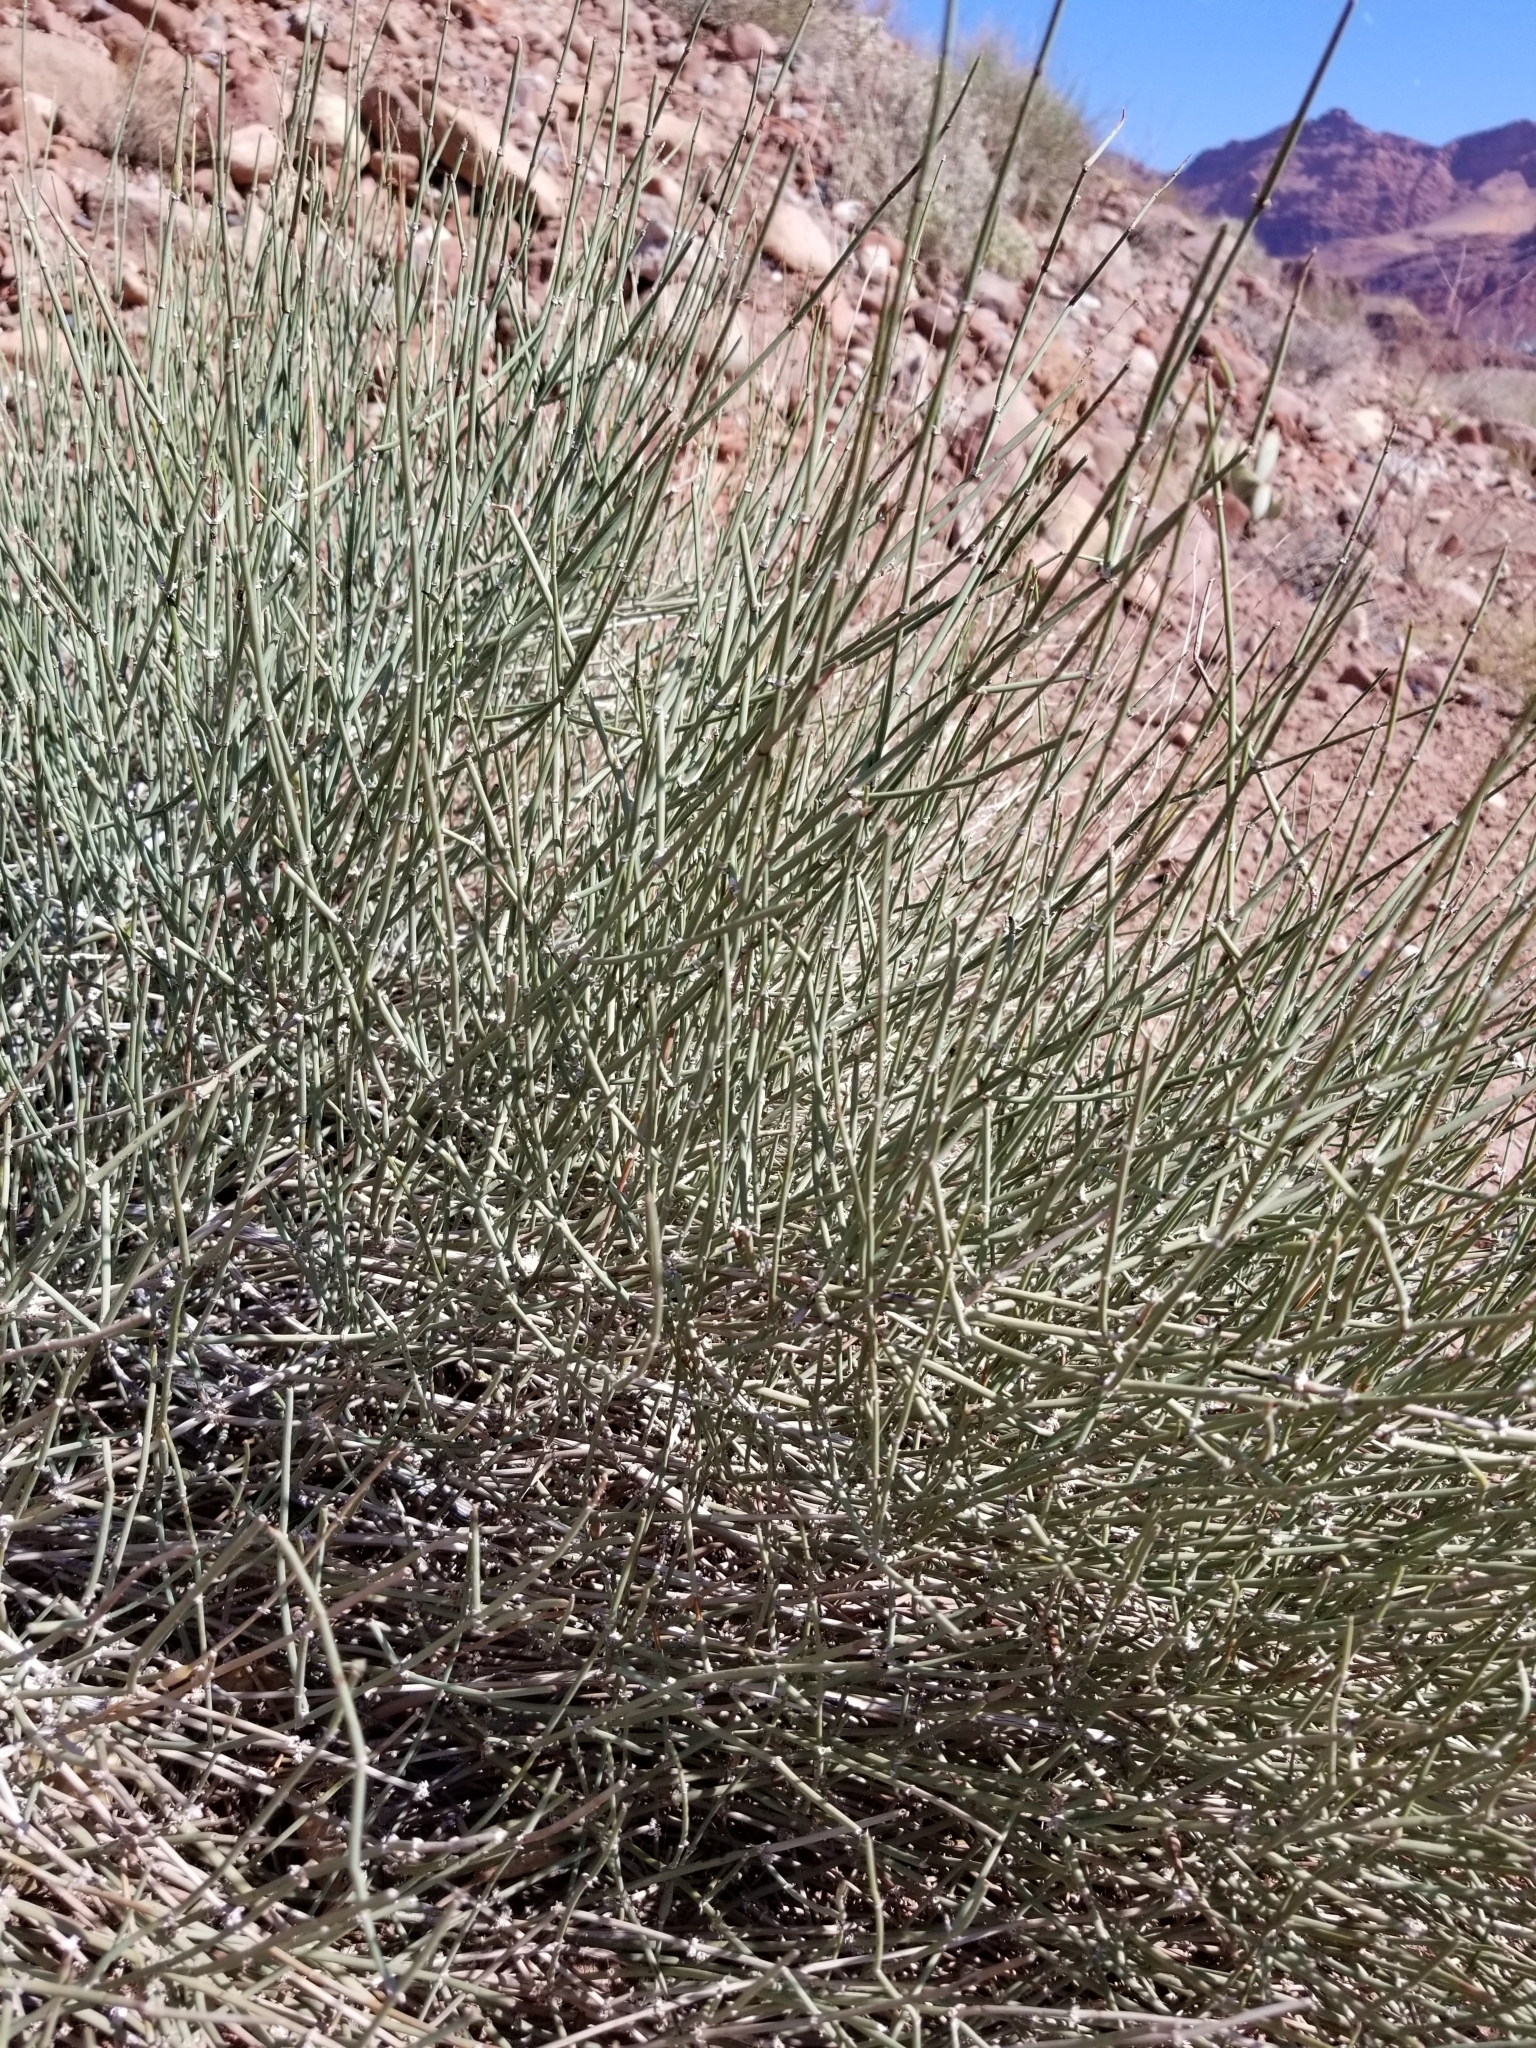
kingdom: Plantae
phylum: Tracheophyta
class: Gnetopsida
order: Ephedrales
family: Ephedraceae
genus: Ephedra
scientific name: Ephedra aspera
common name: Boundary ephedra
